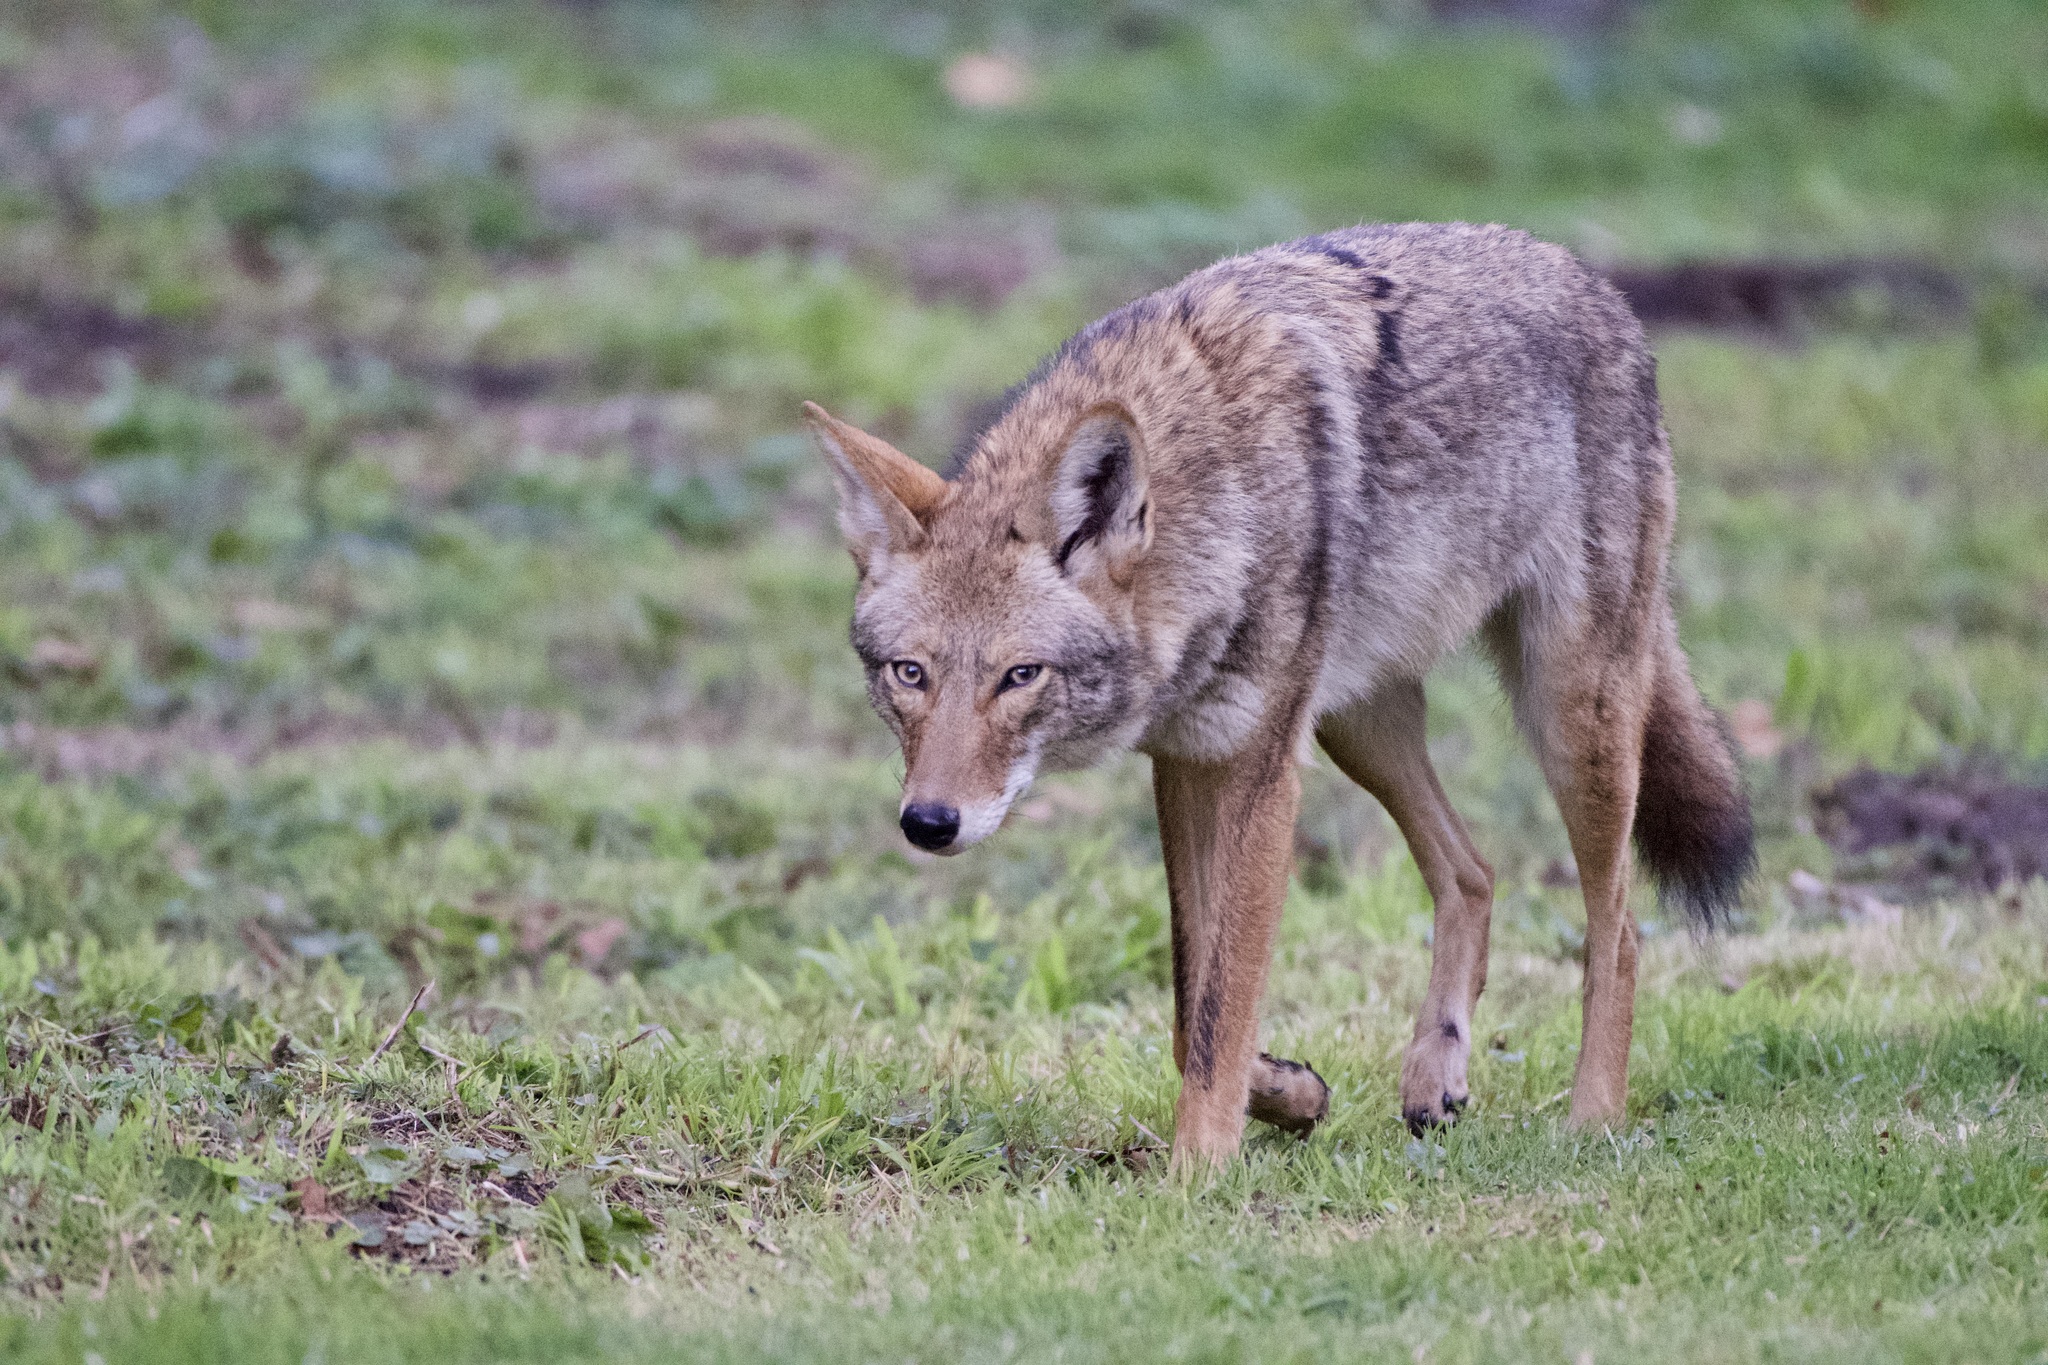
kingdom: Animalia
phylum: Chordata
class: Mammalia
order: Carnivora
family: Canidae
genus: Canis
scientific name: Canis latrans
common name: Coyote
